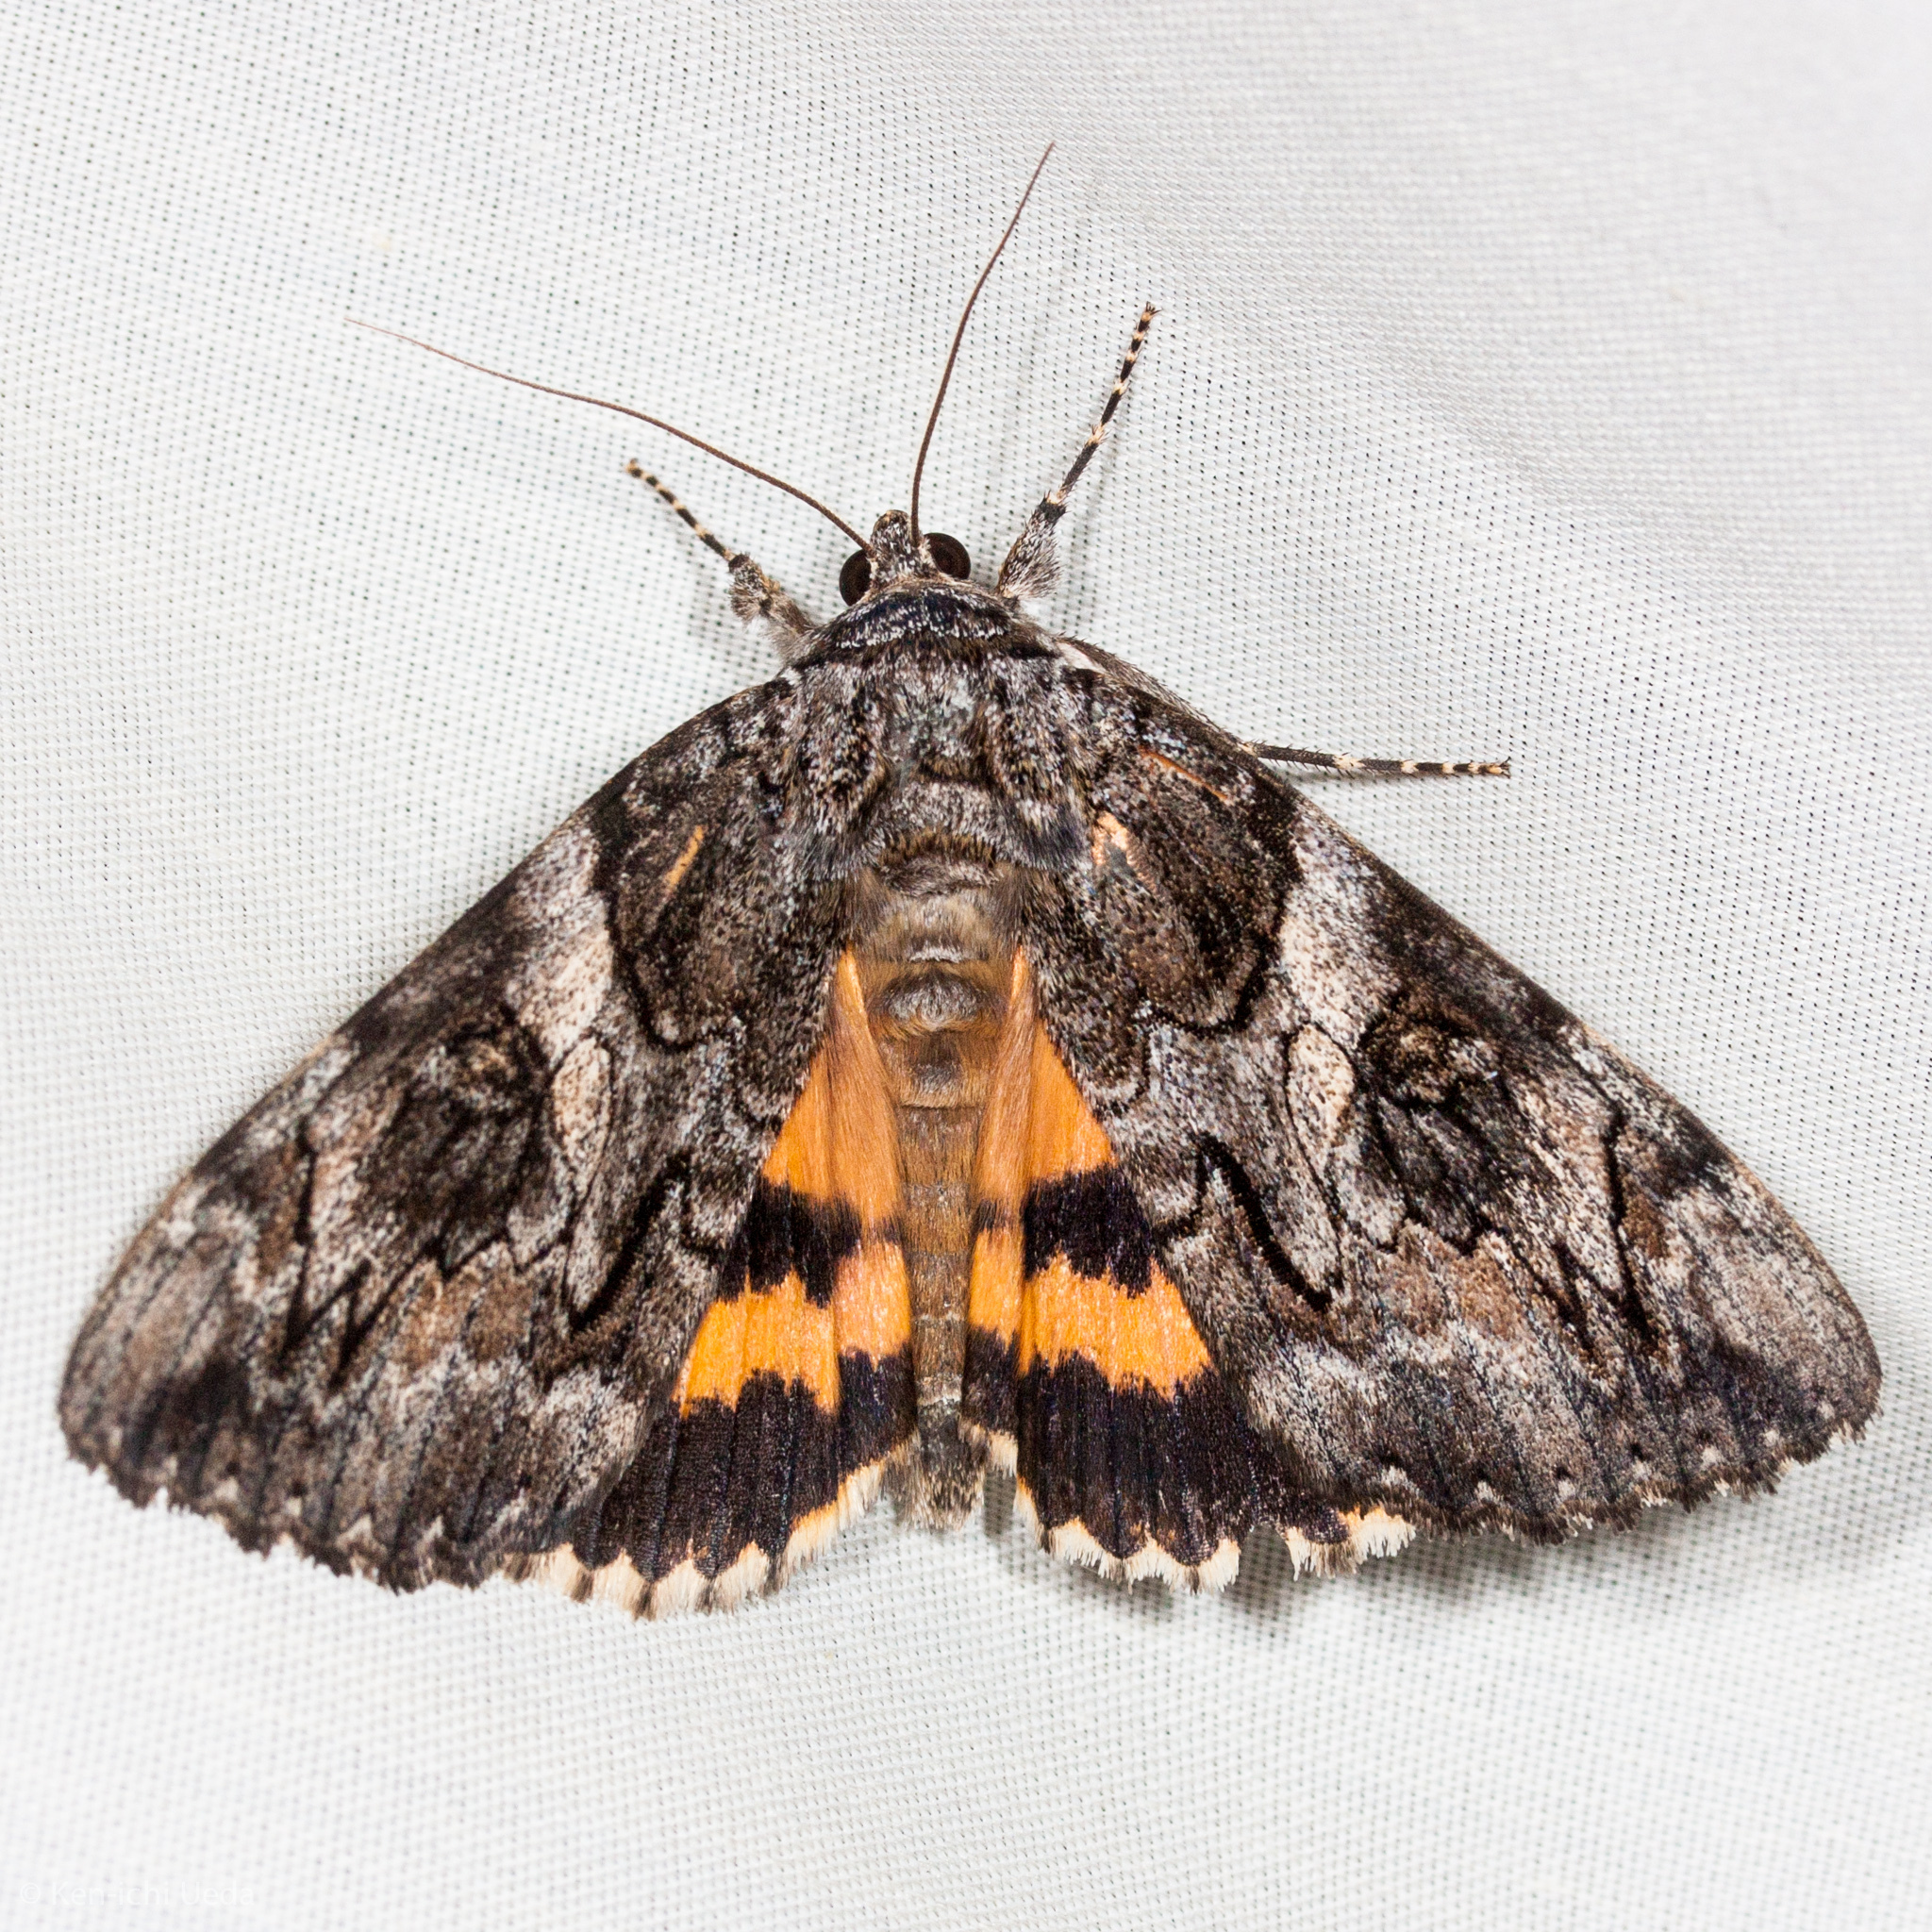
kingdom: Animalia
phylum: Arthropoda
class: Insecta
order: Lepidoptera
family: Erebidae
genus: Catocala
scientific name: Catocala piatrix
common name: The penitent underwing
